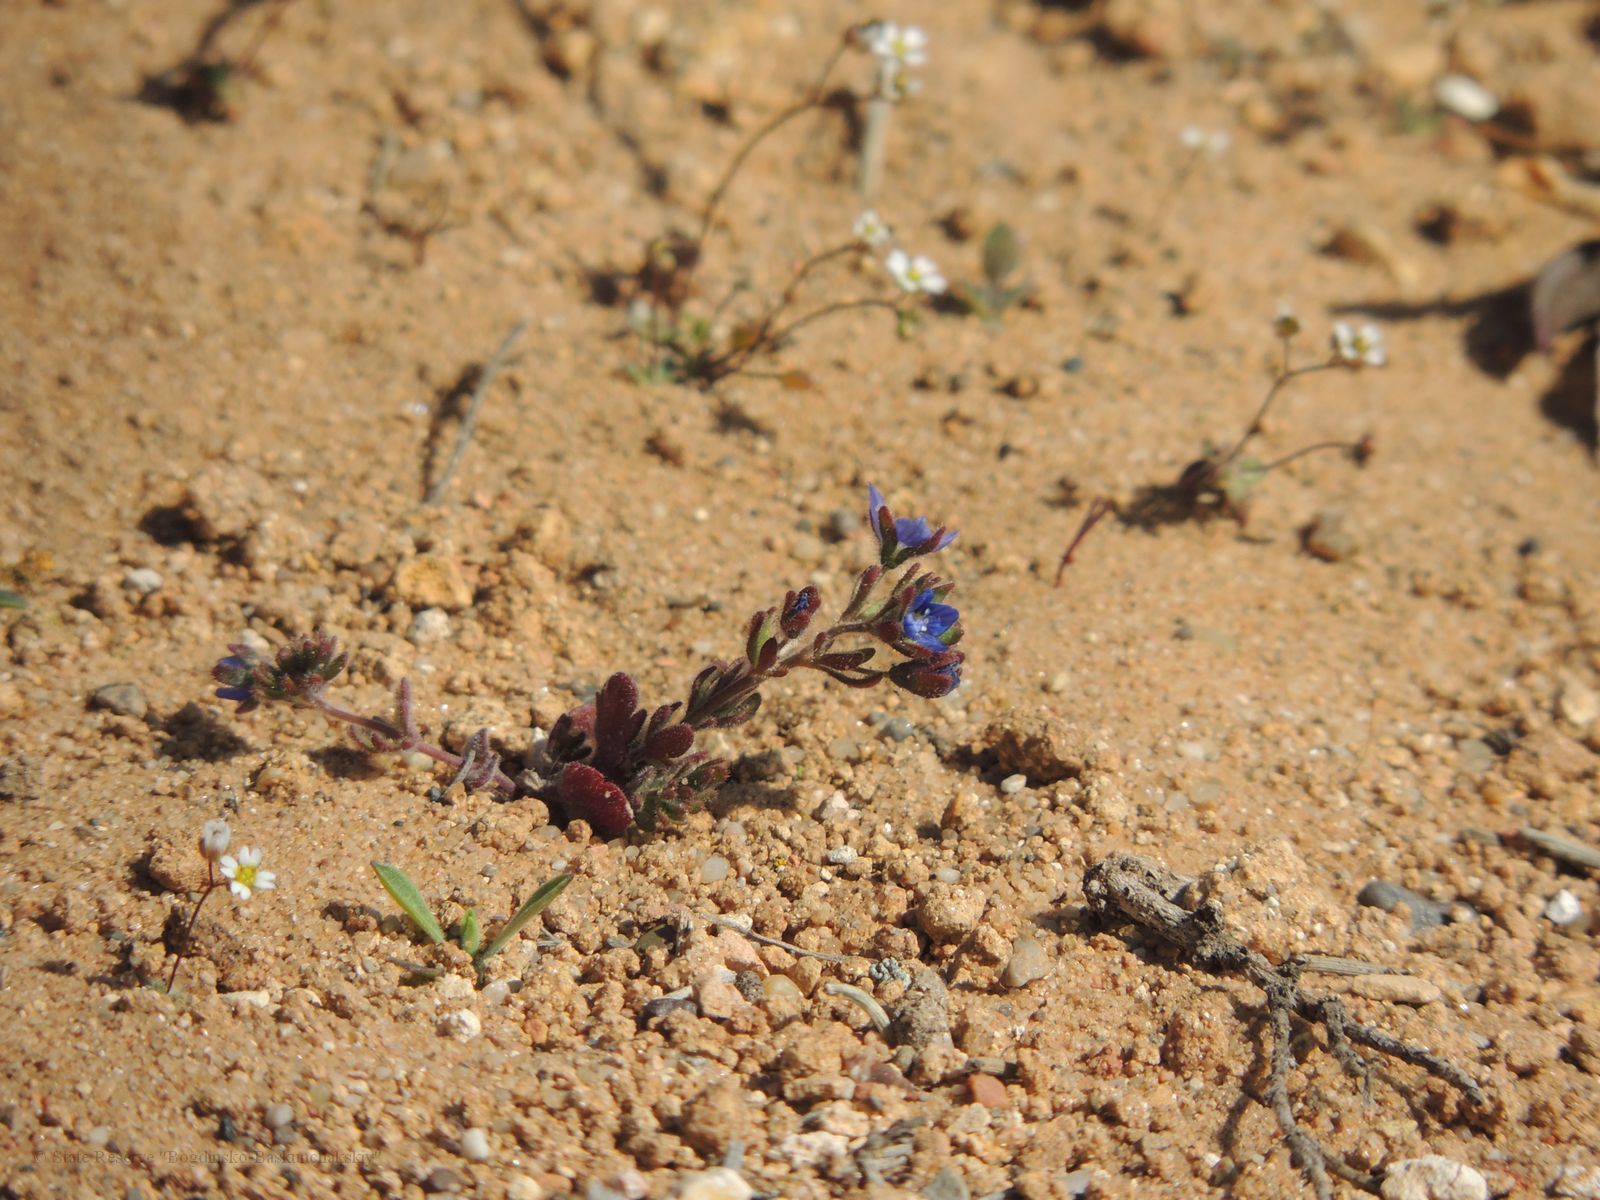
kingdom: Plantae
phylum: Tracheophyta
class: Magnoliopsida
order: Lamiales
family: Plantaginaceae
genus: Veronica
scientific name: Veronica triphyllos
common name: Fingered speedwell
